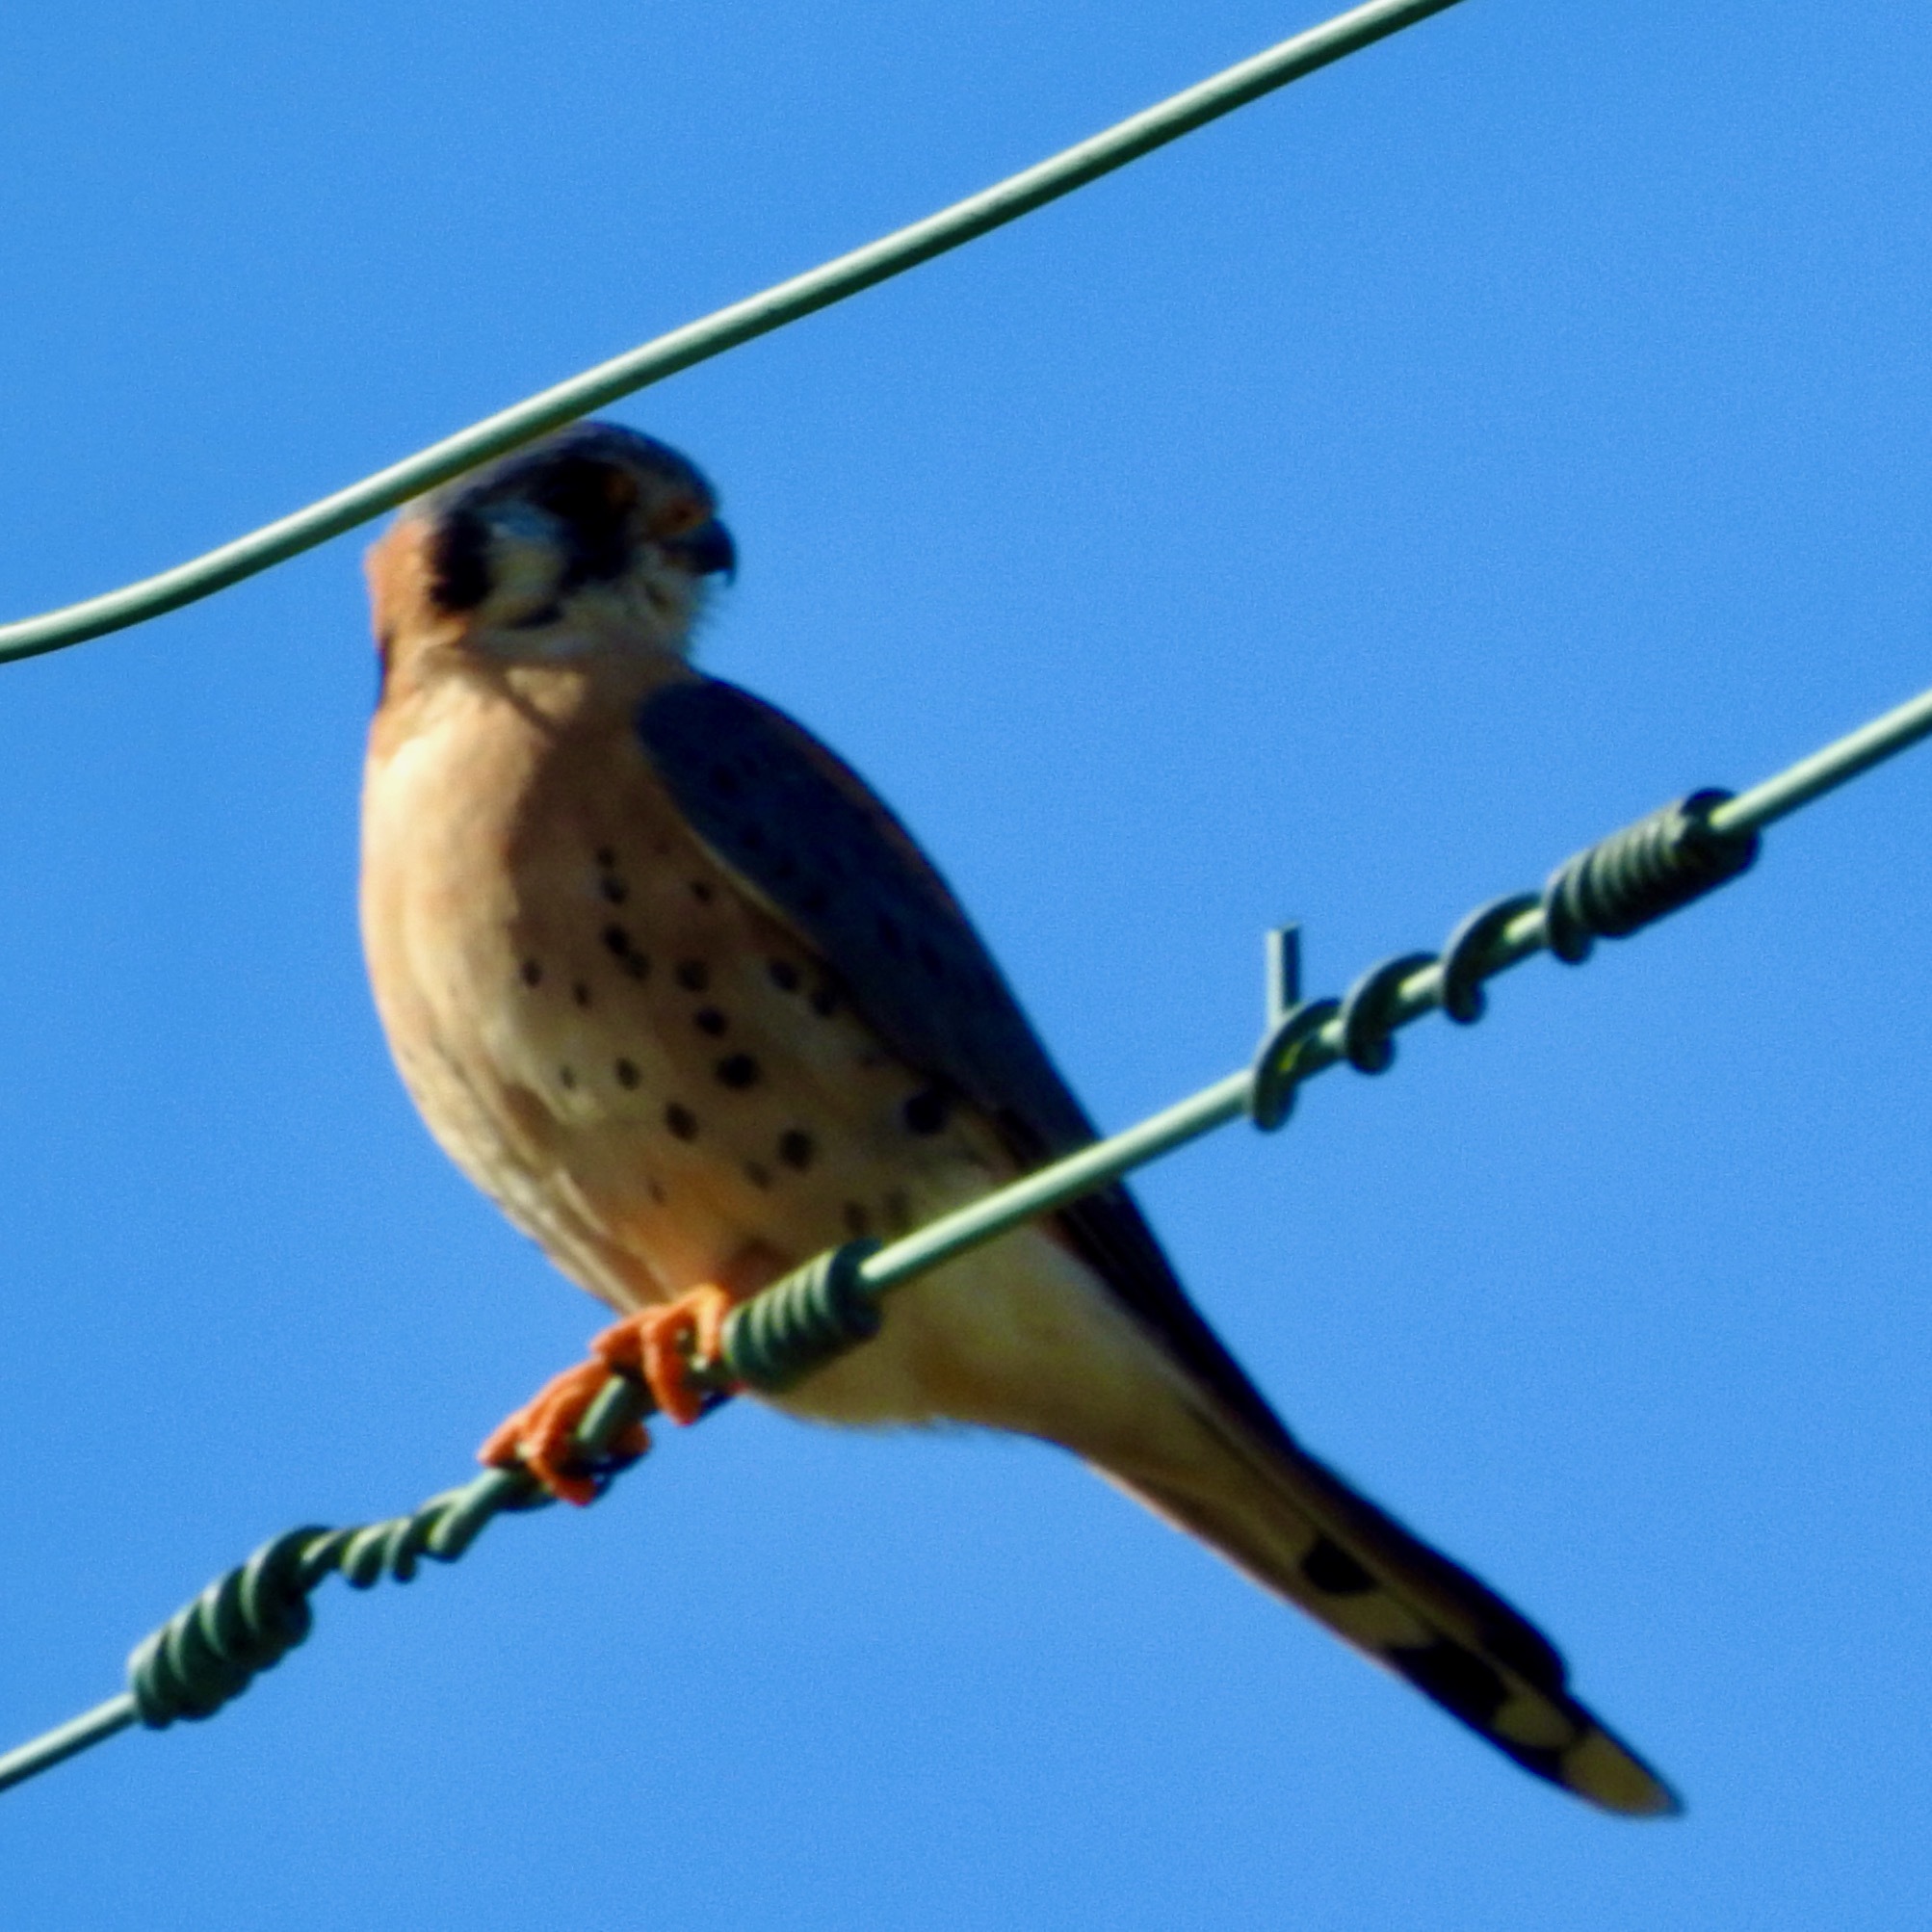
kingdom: Animalia
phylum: Chordata
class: Aves
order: Falconiformes
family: Falconidae
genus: Falco
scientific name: Falco sparverius
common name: American kestrel
